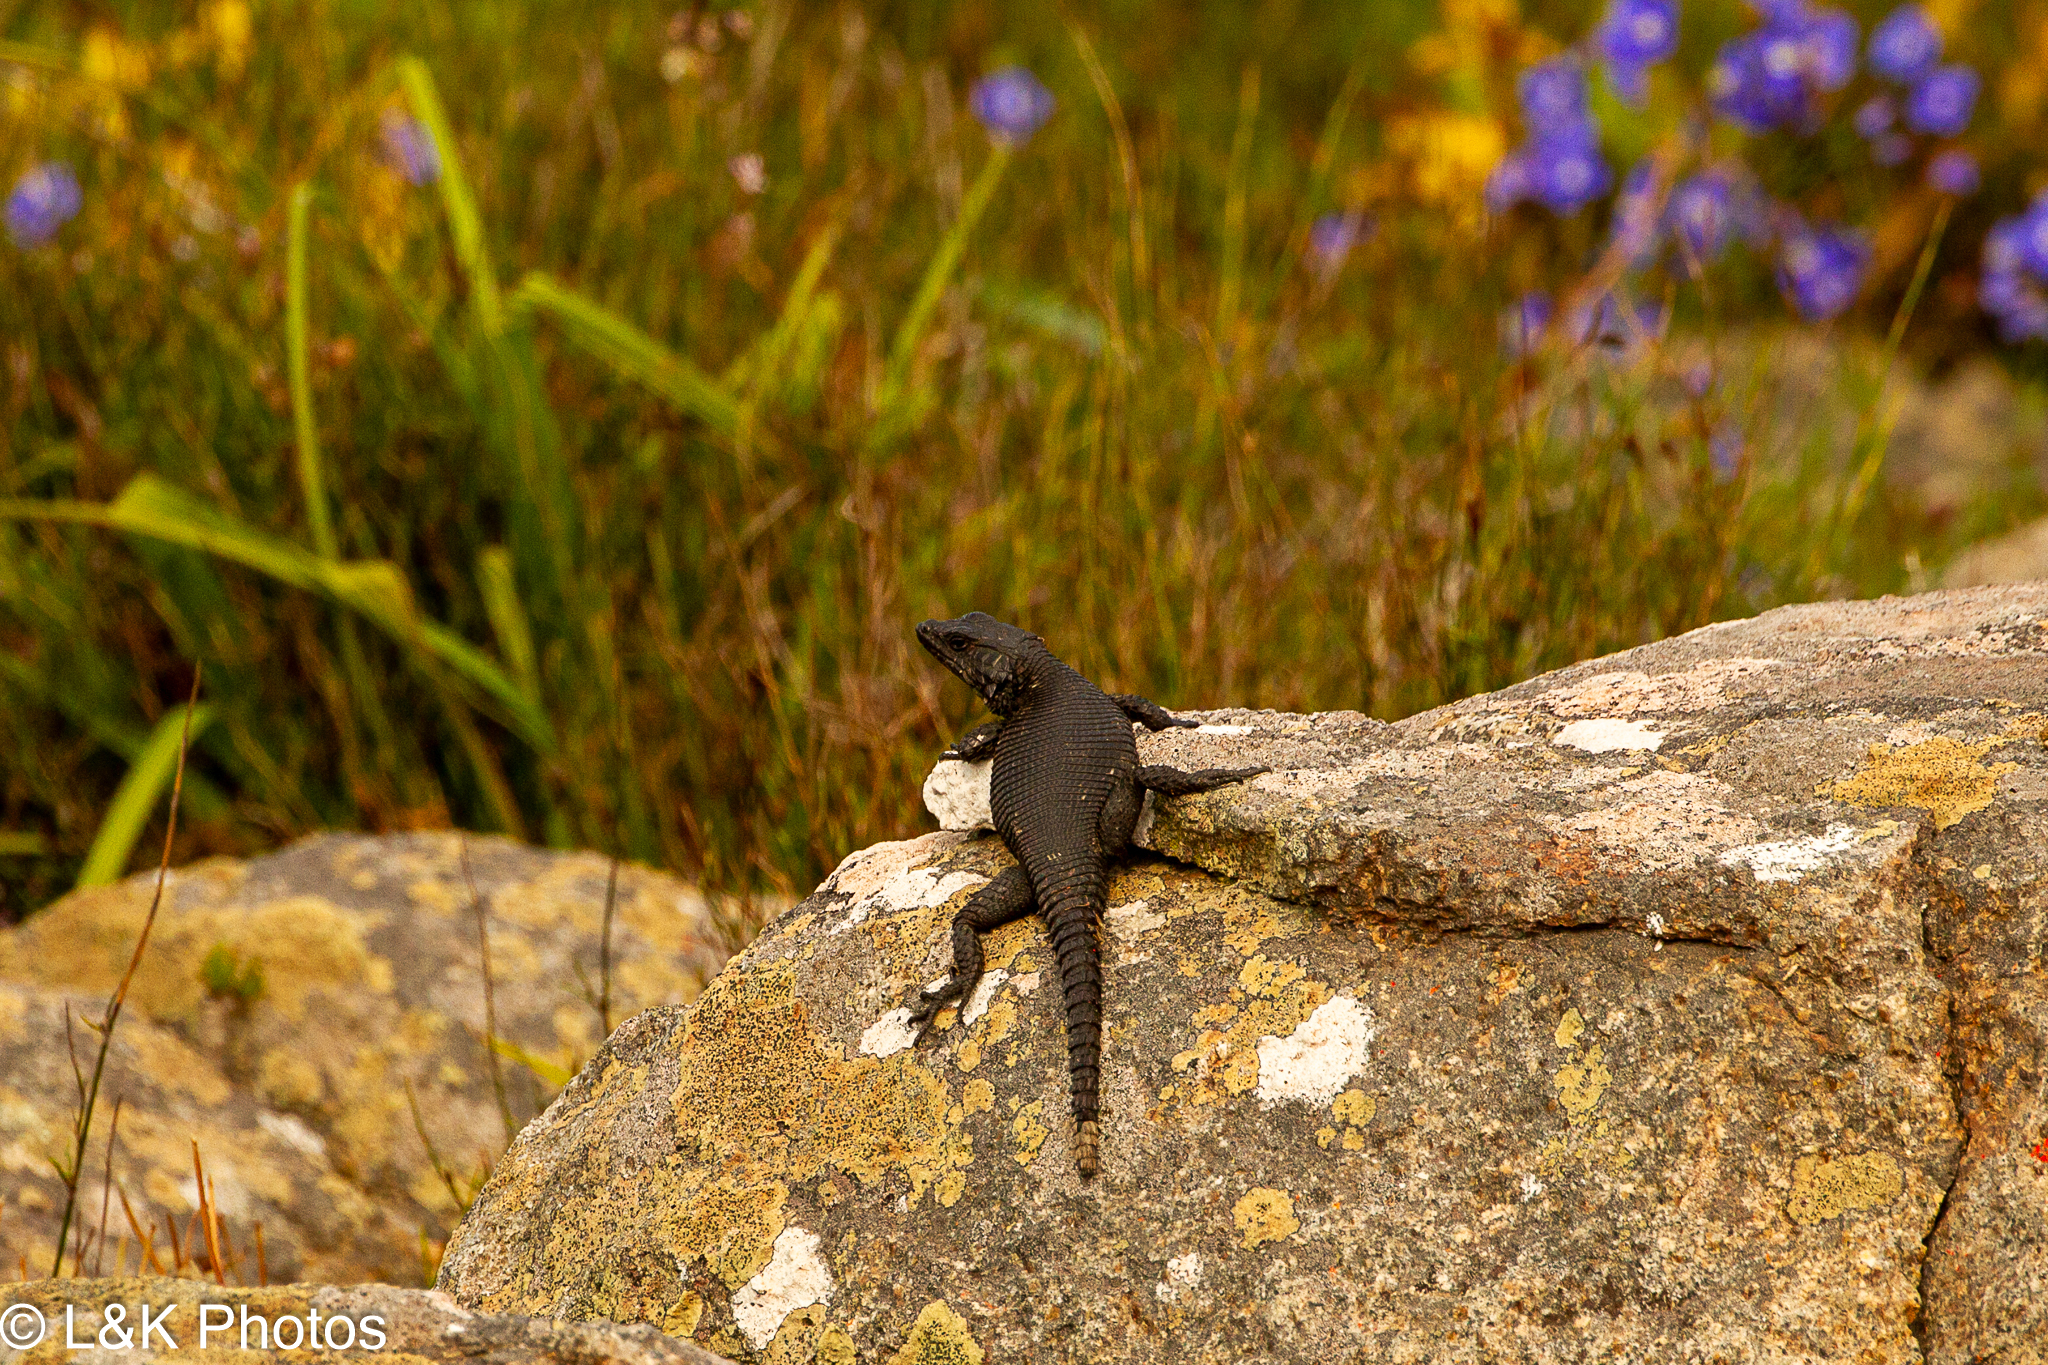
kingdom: Animalia
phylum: Chordata
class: Squamata
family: Cordylidae
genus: Karusasaurus
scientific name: Karusasaurus polyzonus
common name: Karoo girdled lizard
